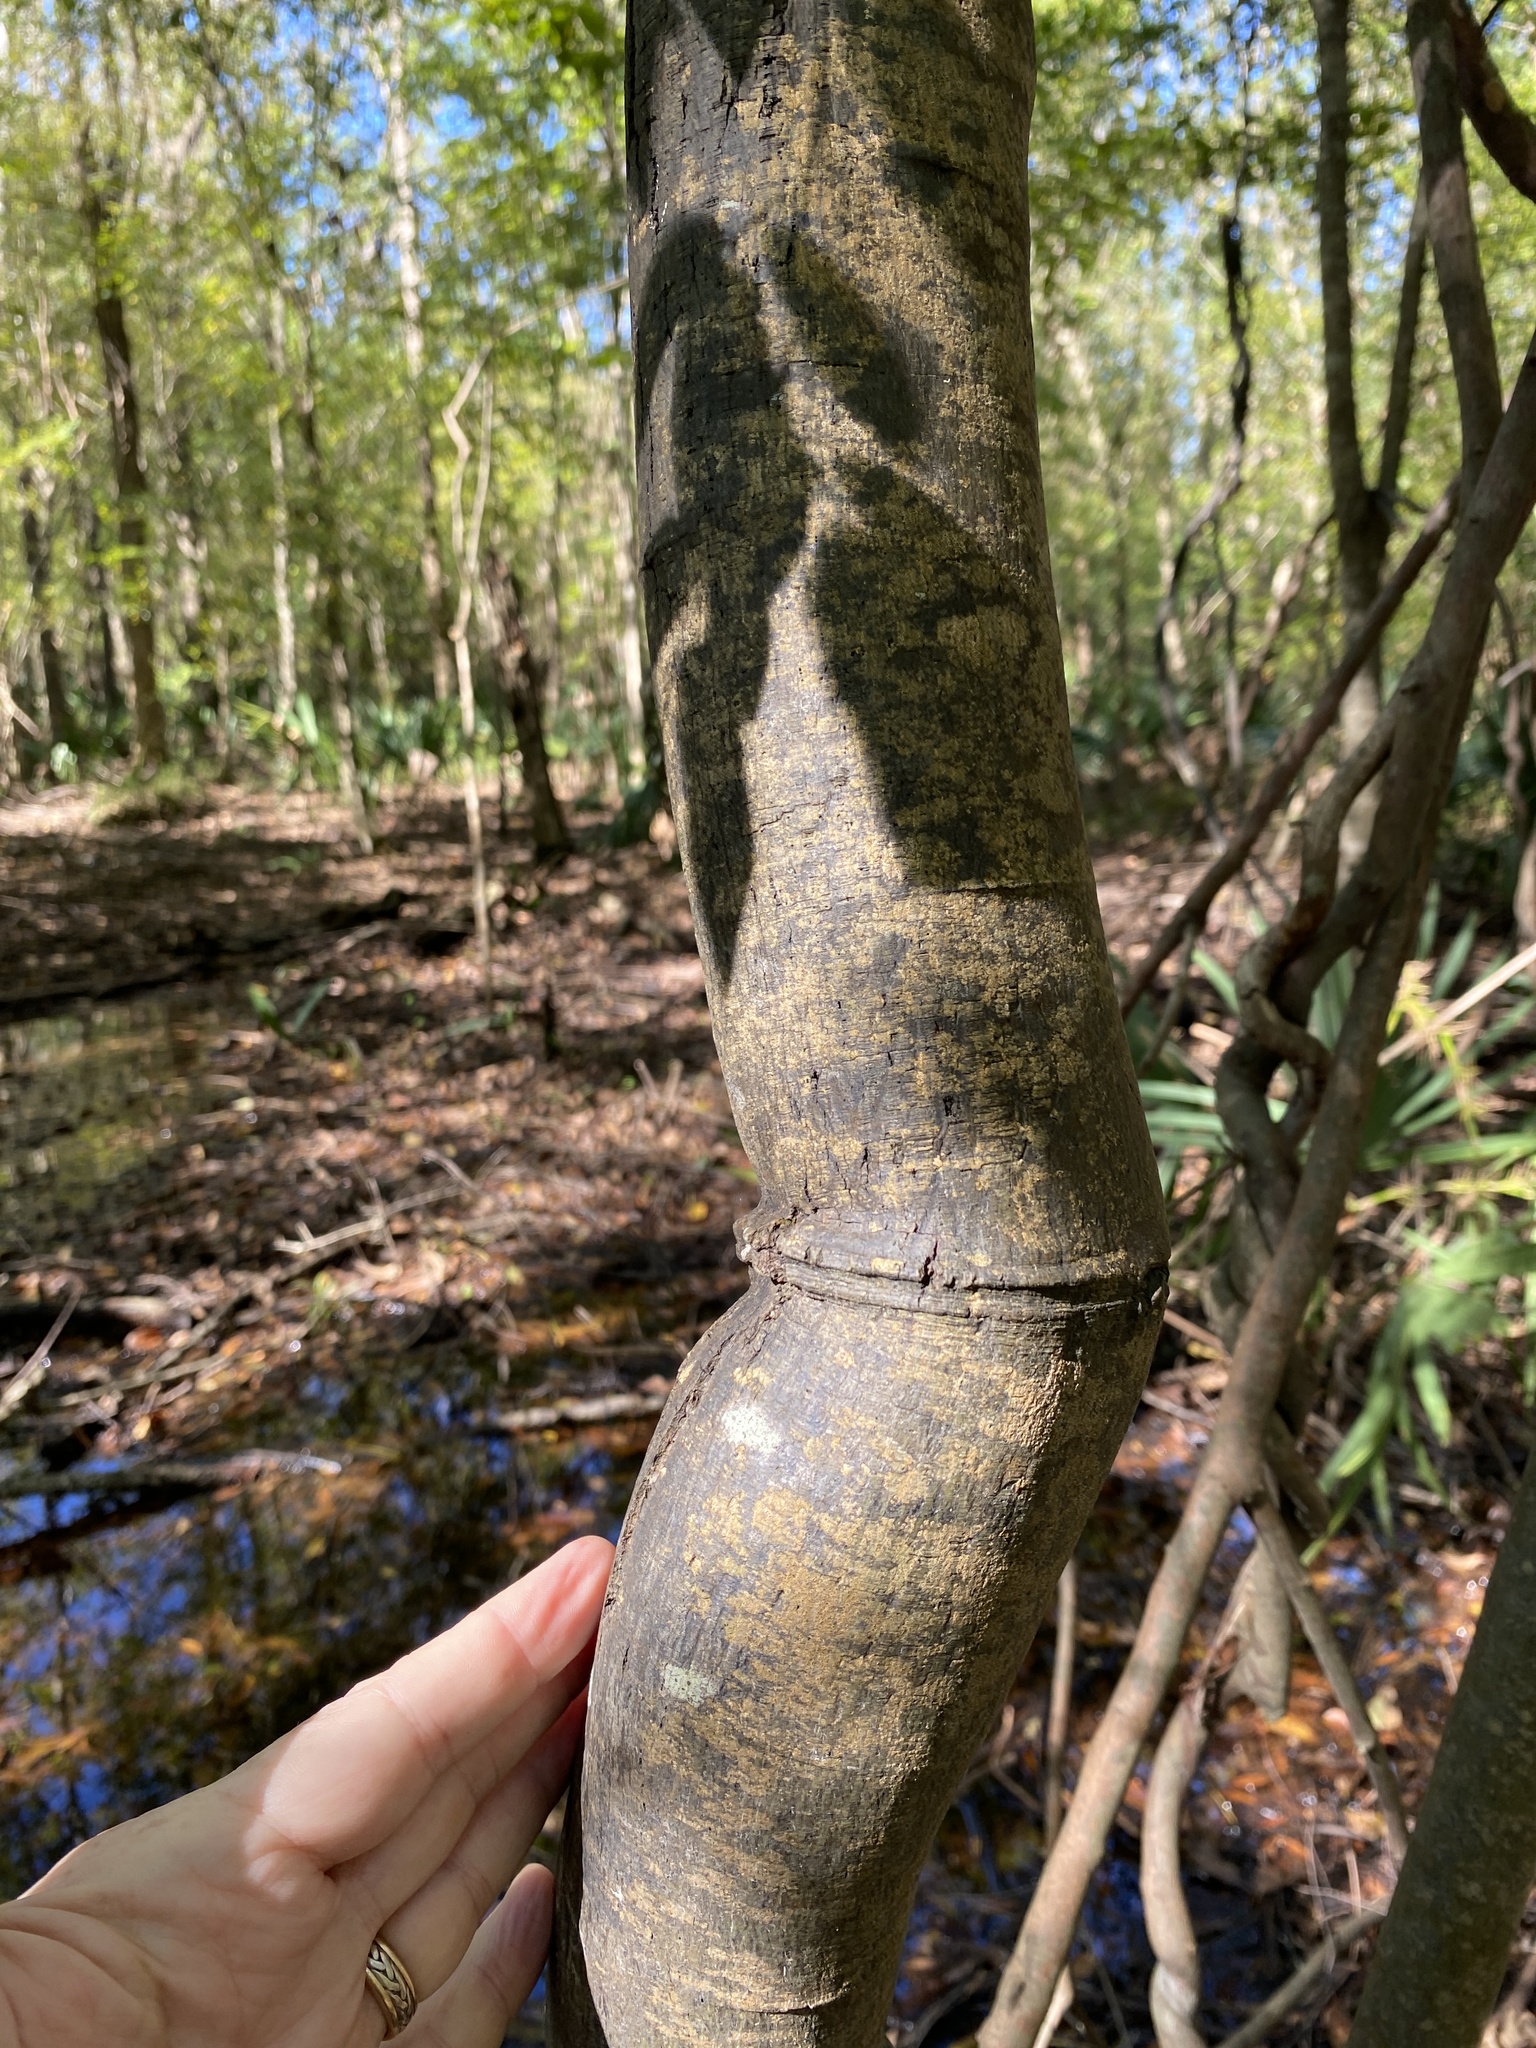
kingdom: Plantae
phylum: Tracheophyta
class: Magnoliopsida
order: Rosales
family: Rhamnaceae
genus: Berchemia
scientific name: Berchemia scandens
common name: Supplejack
